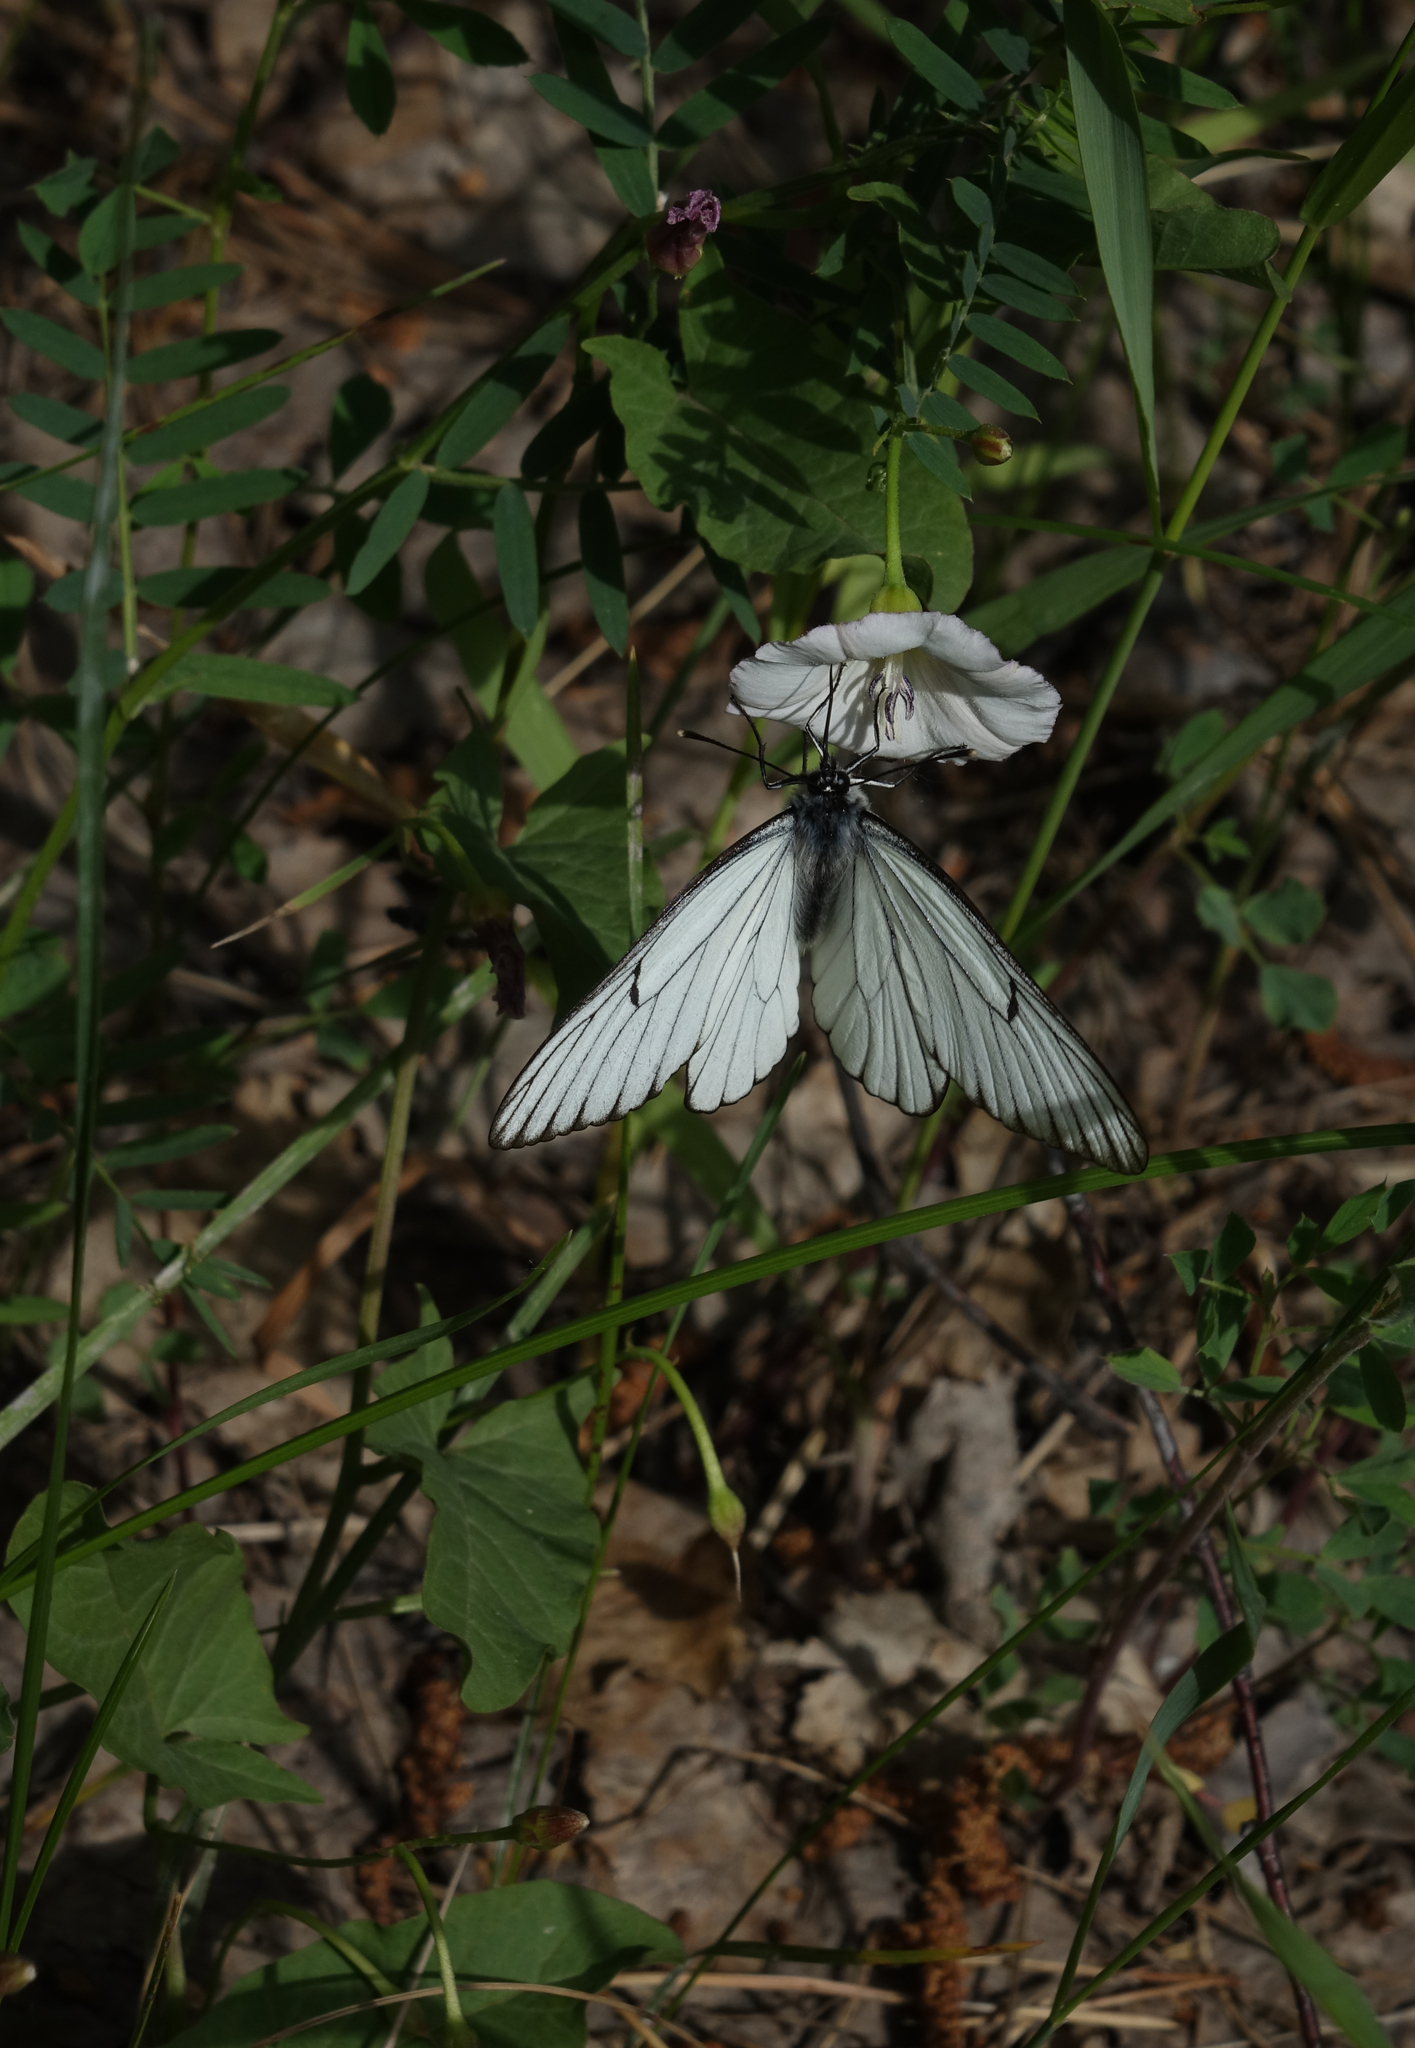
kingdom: Plantae
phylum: Tracheophyta
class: Magnoliopsida
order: Caryophyllales
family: Caryophyllaceae
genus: Silene
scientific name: Silene latifolia
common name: White campion
